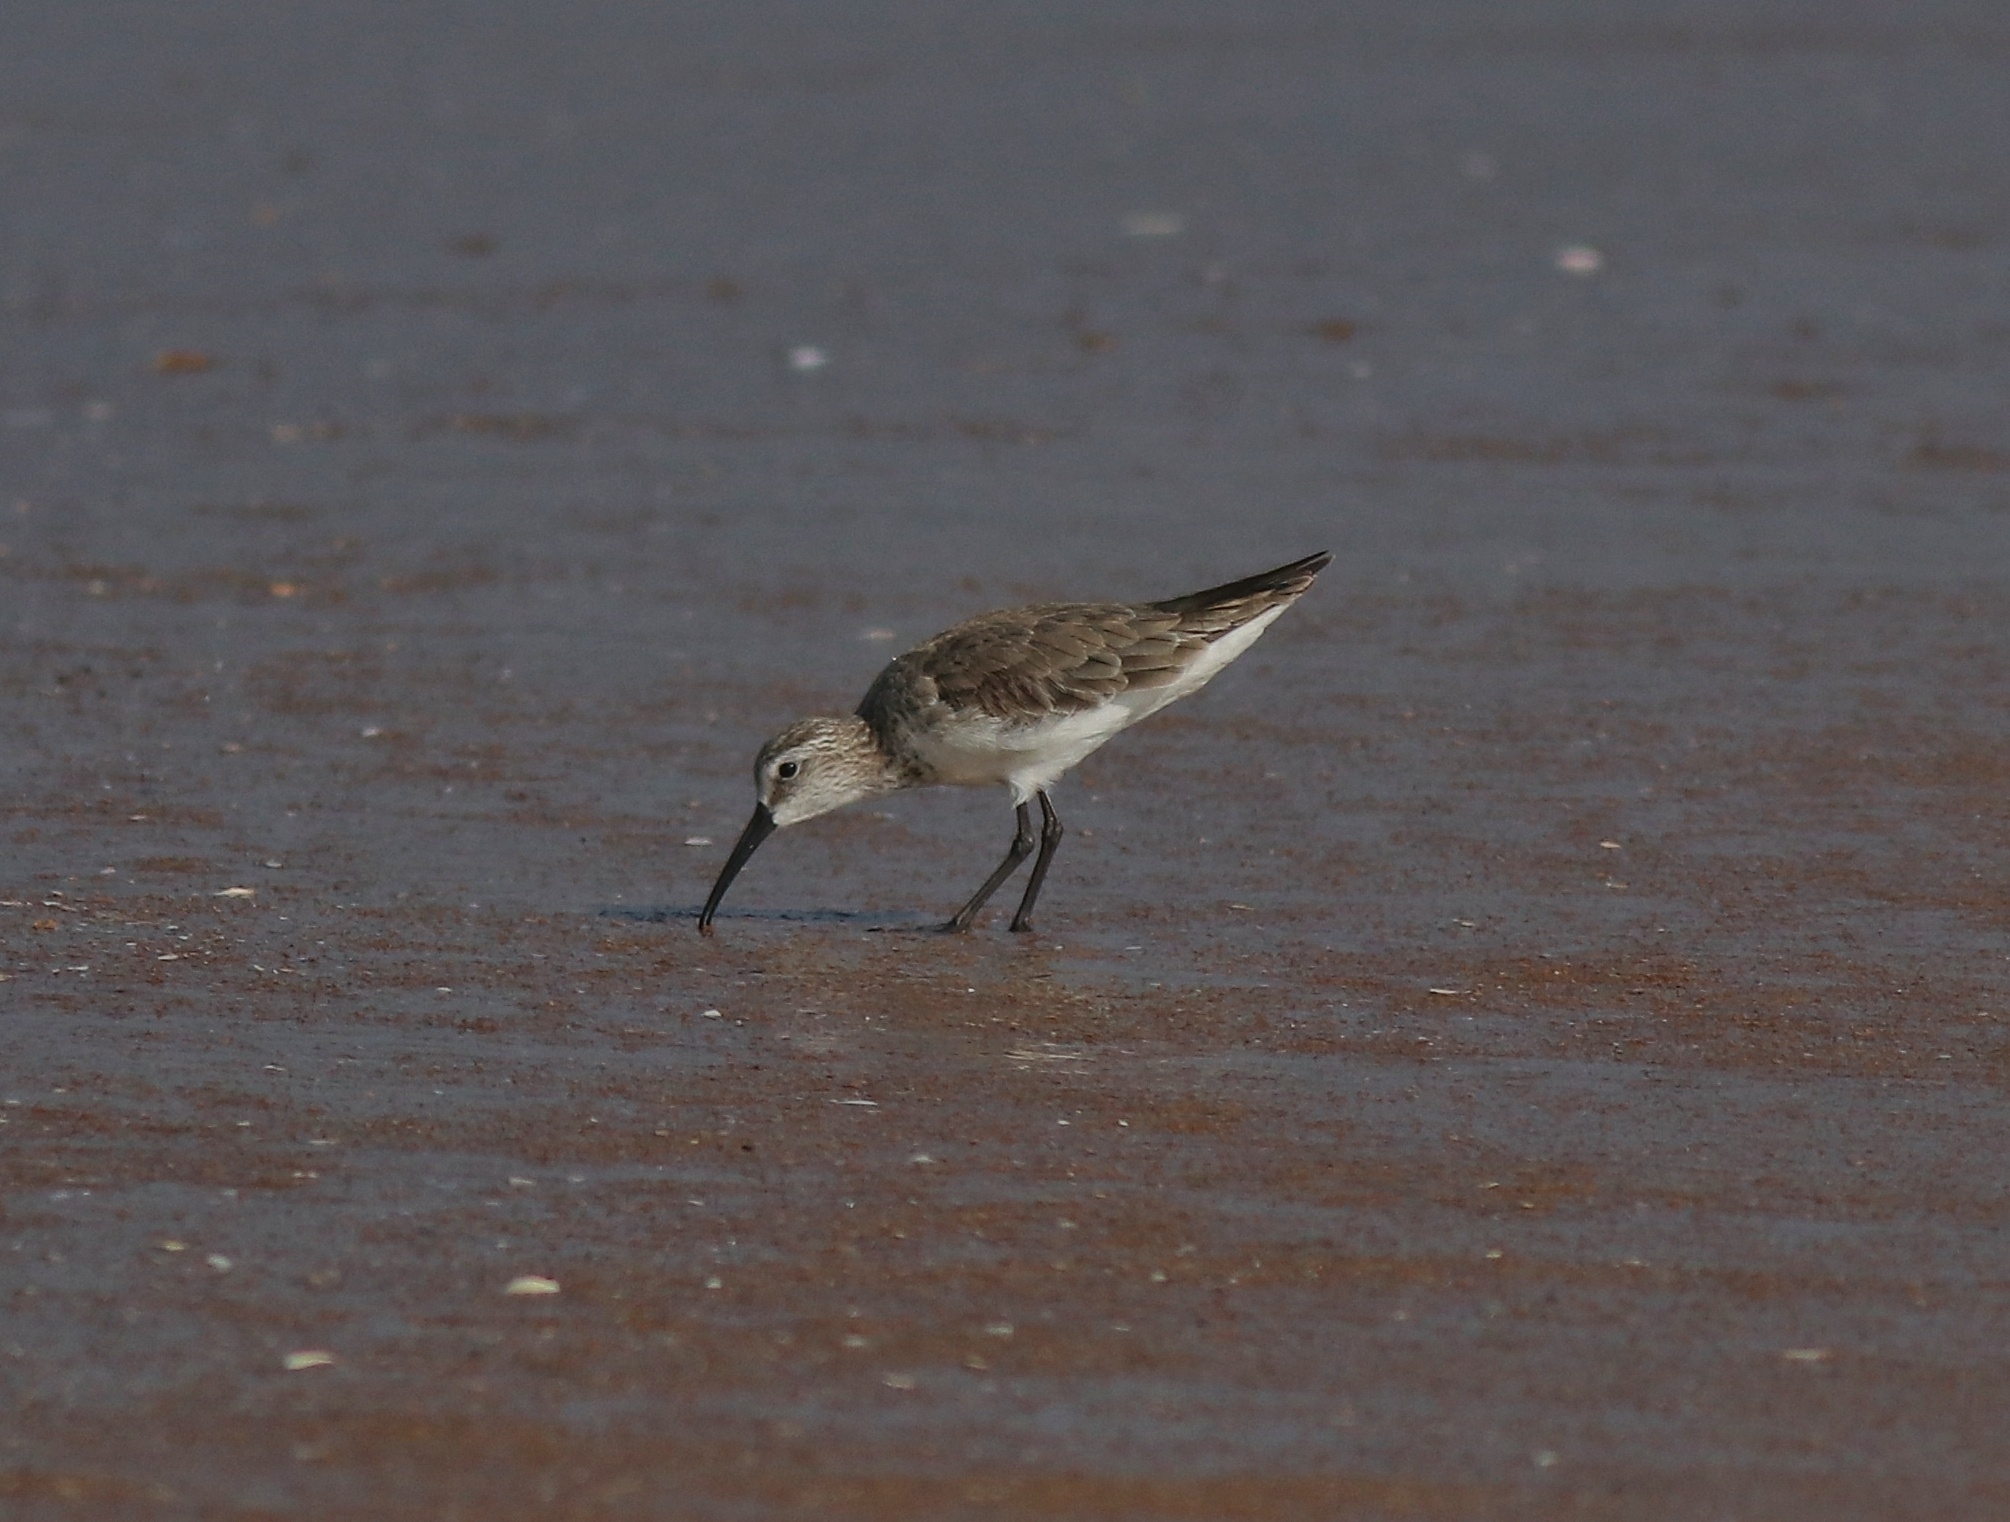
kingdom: Animalia
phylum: Chordata
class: Aves
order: Charadriiformes
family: Scolopacidae
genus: Calidris
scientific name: Calidris ferruginea
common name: Curlew sandpiper
